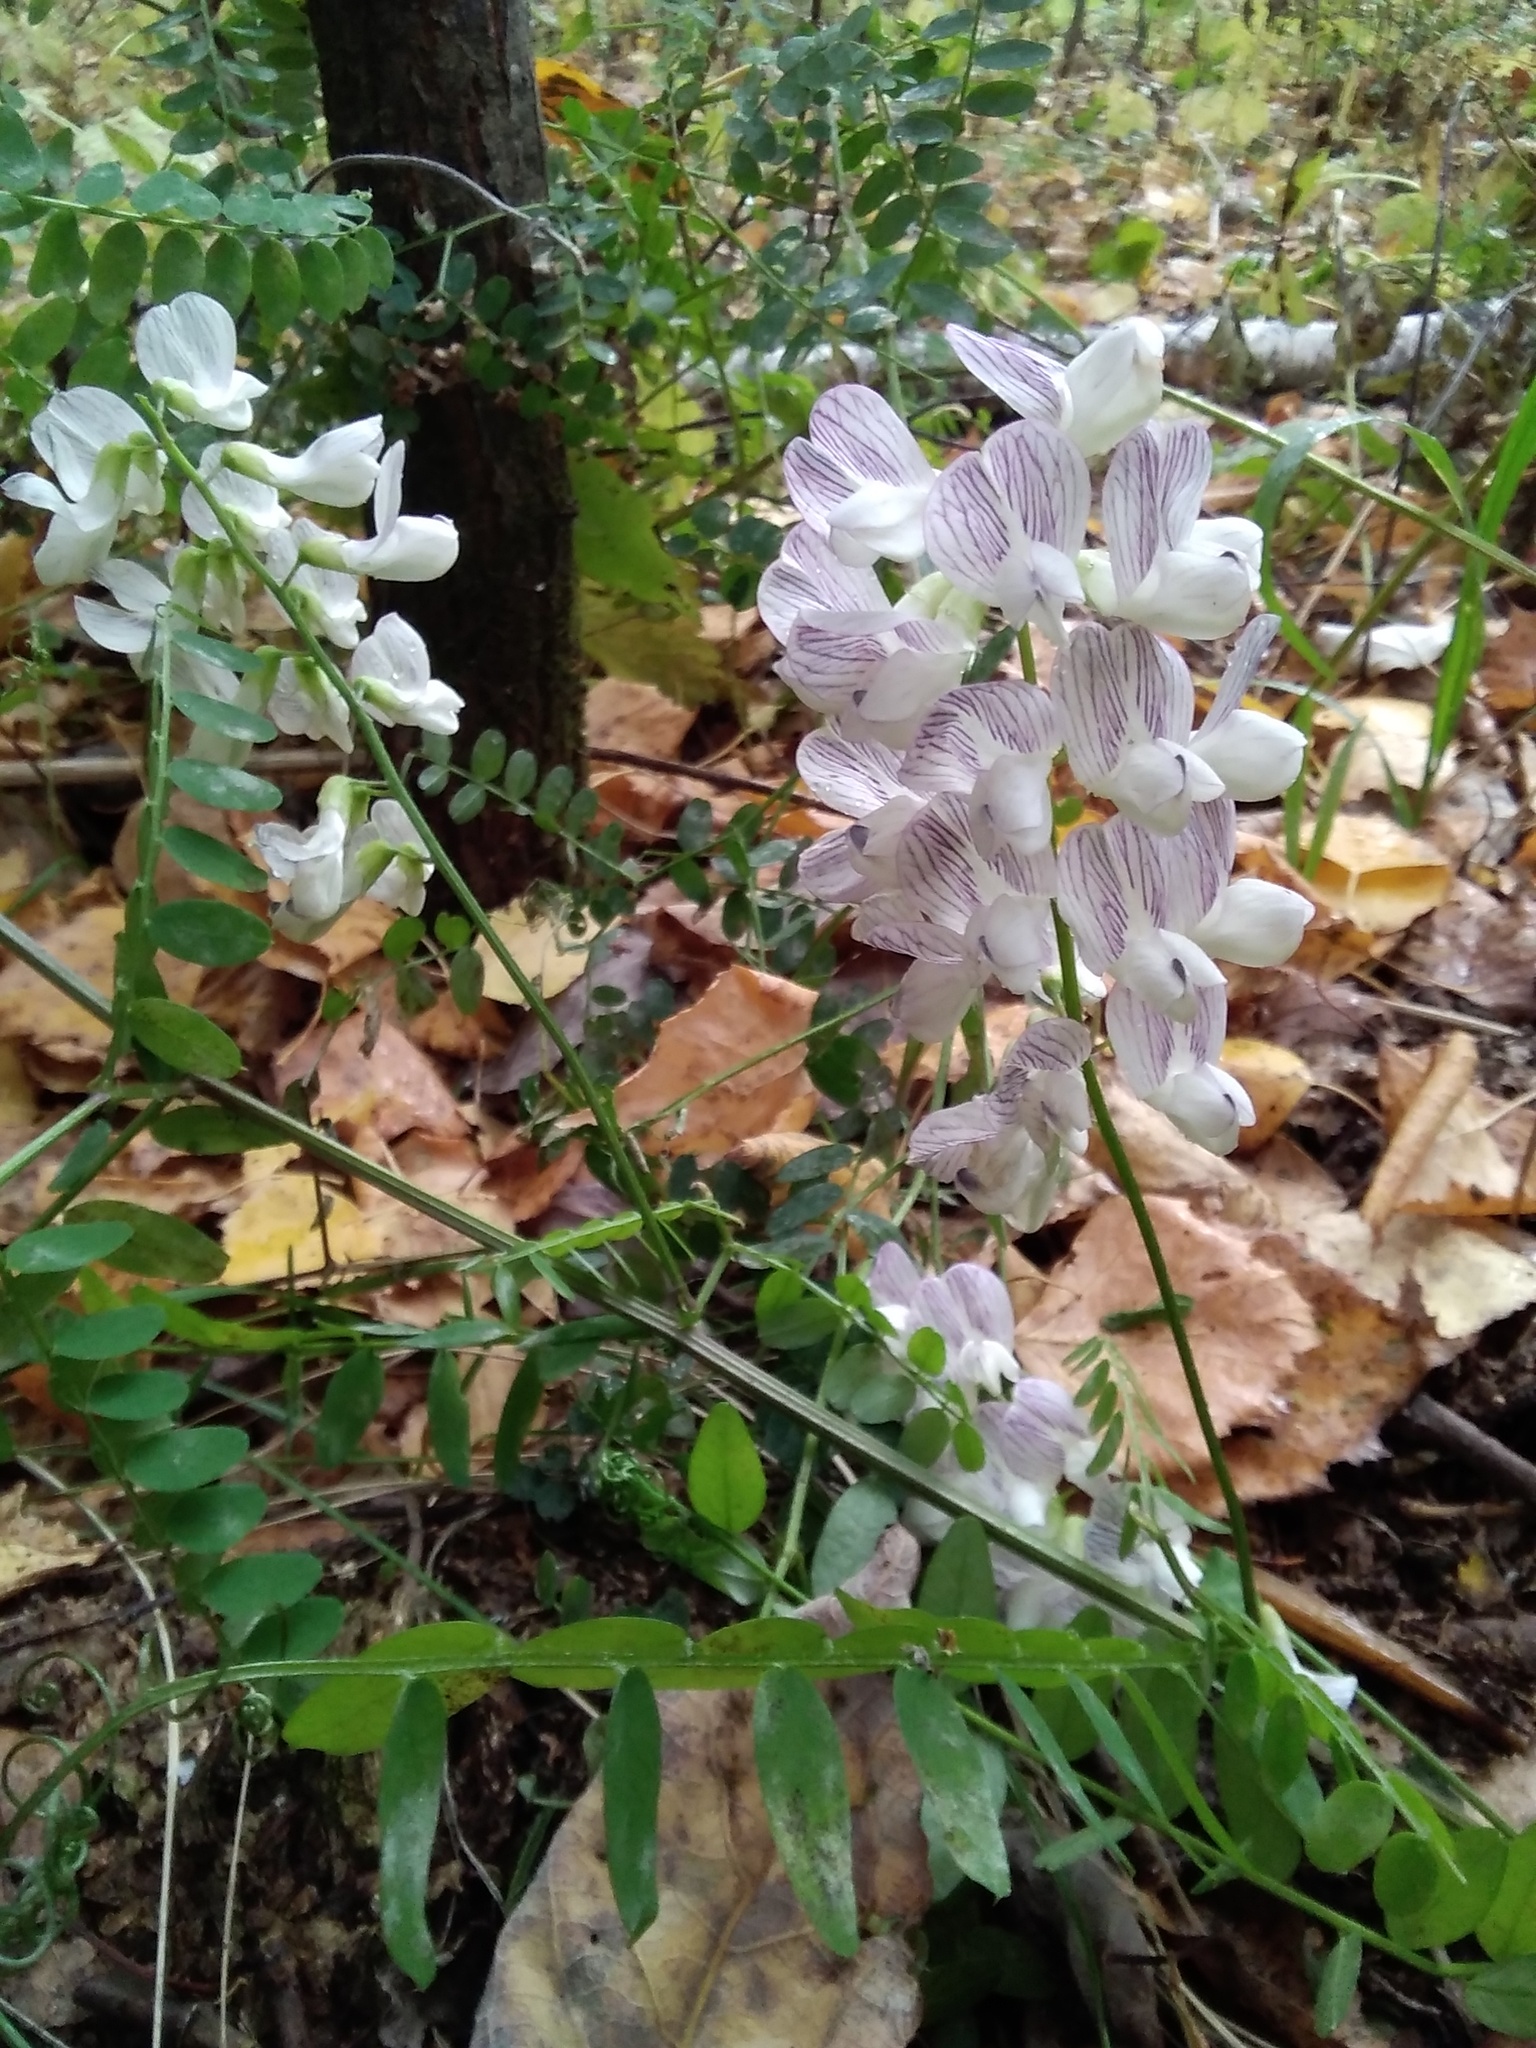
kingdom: Plantae
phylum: Tracheophyta
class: Magnoliopsida
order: Fabales
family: Fabaceae
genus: Vicia
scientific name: Vicia sylvatica
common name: Wood vetch
